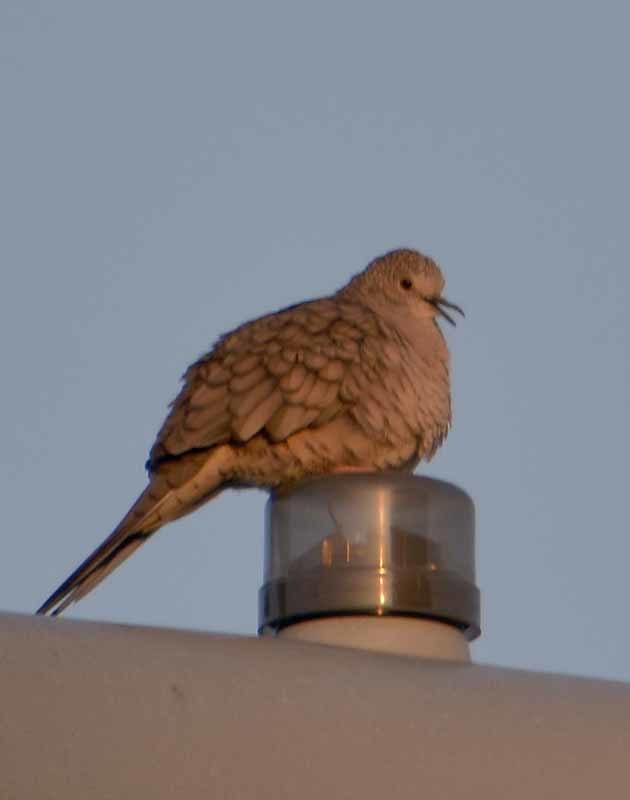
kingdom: Animalia
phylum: Chordata
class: Aves
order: Columbiformes
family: Columbidae
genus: Columbina
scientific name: Columbina inca
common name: Inca dove
